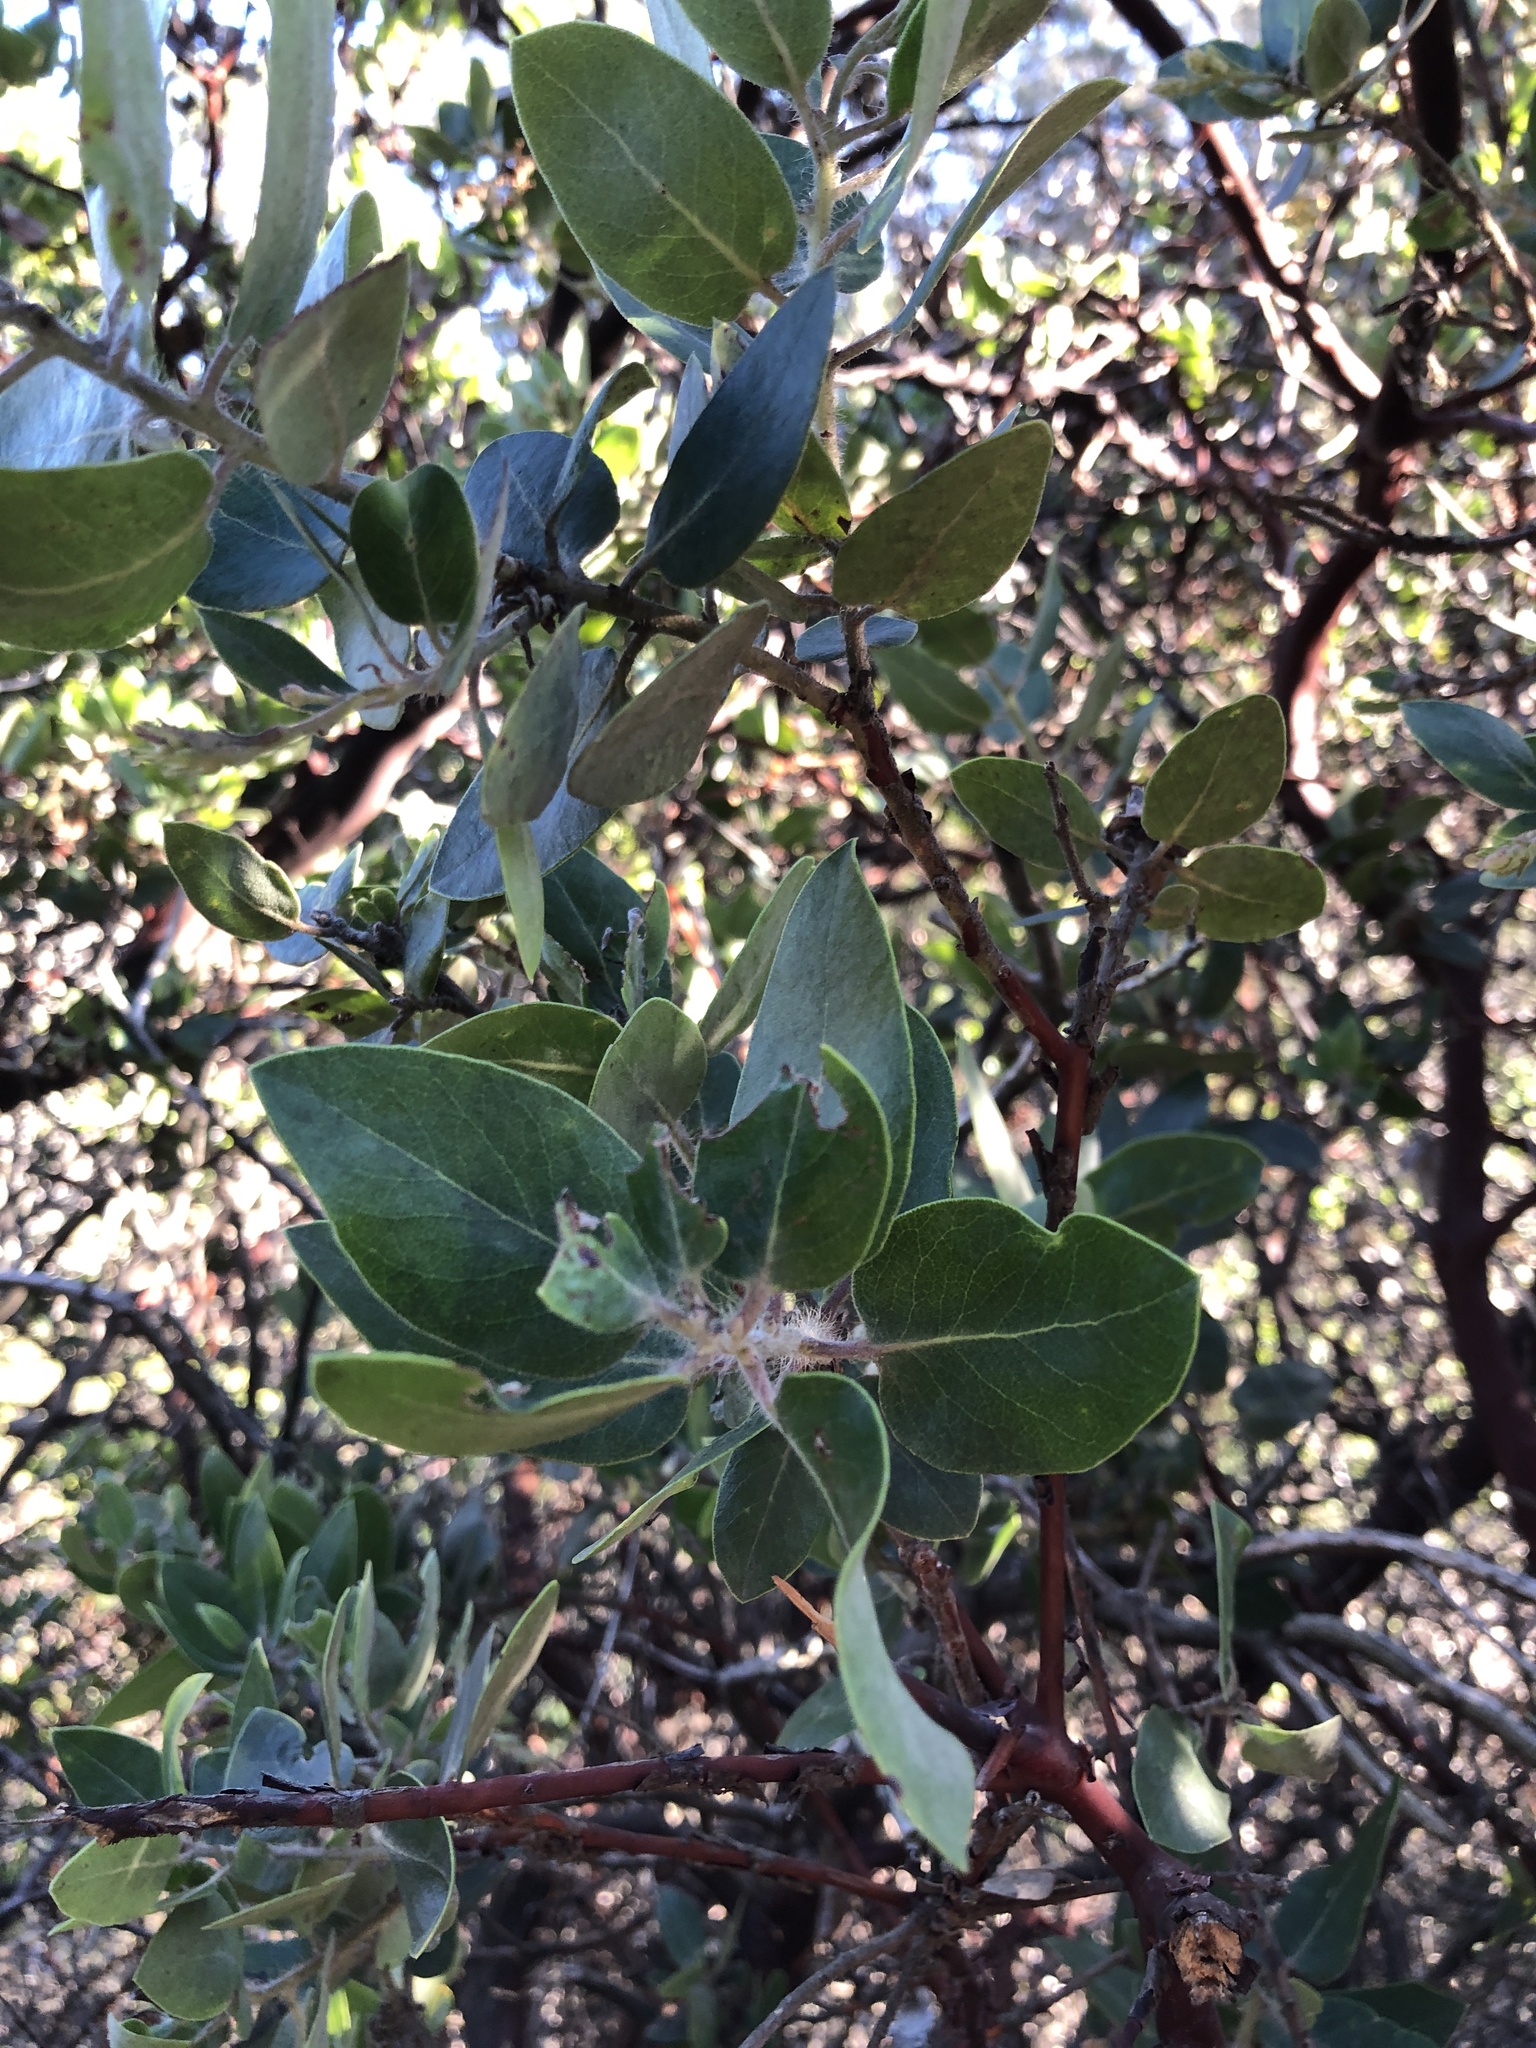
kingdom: Plantae
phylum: Tracheophyta
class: Magnoliopsida
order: Ericales
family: Ericaceae
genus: Arctostaphylos
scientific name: Arctostaphylos crustacea
